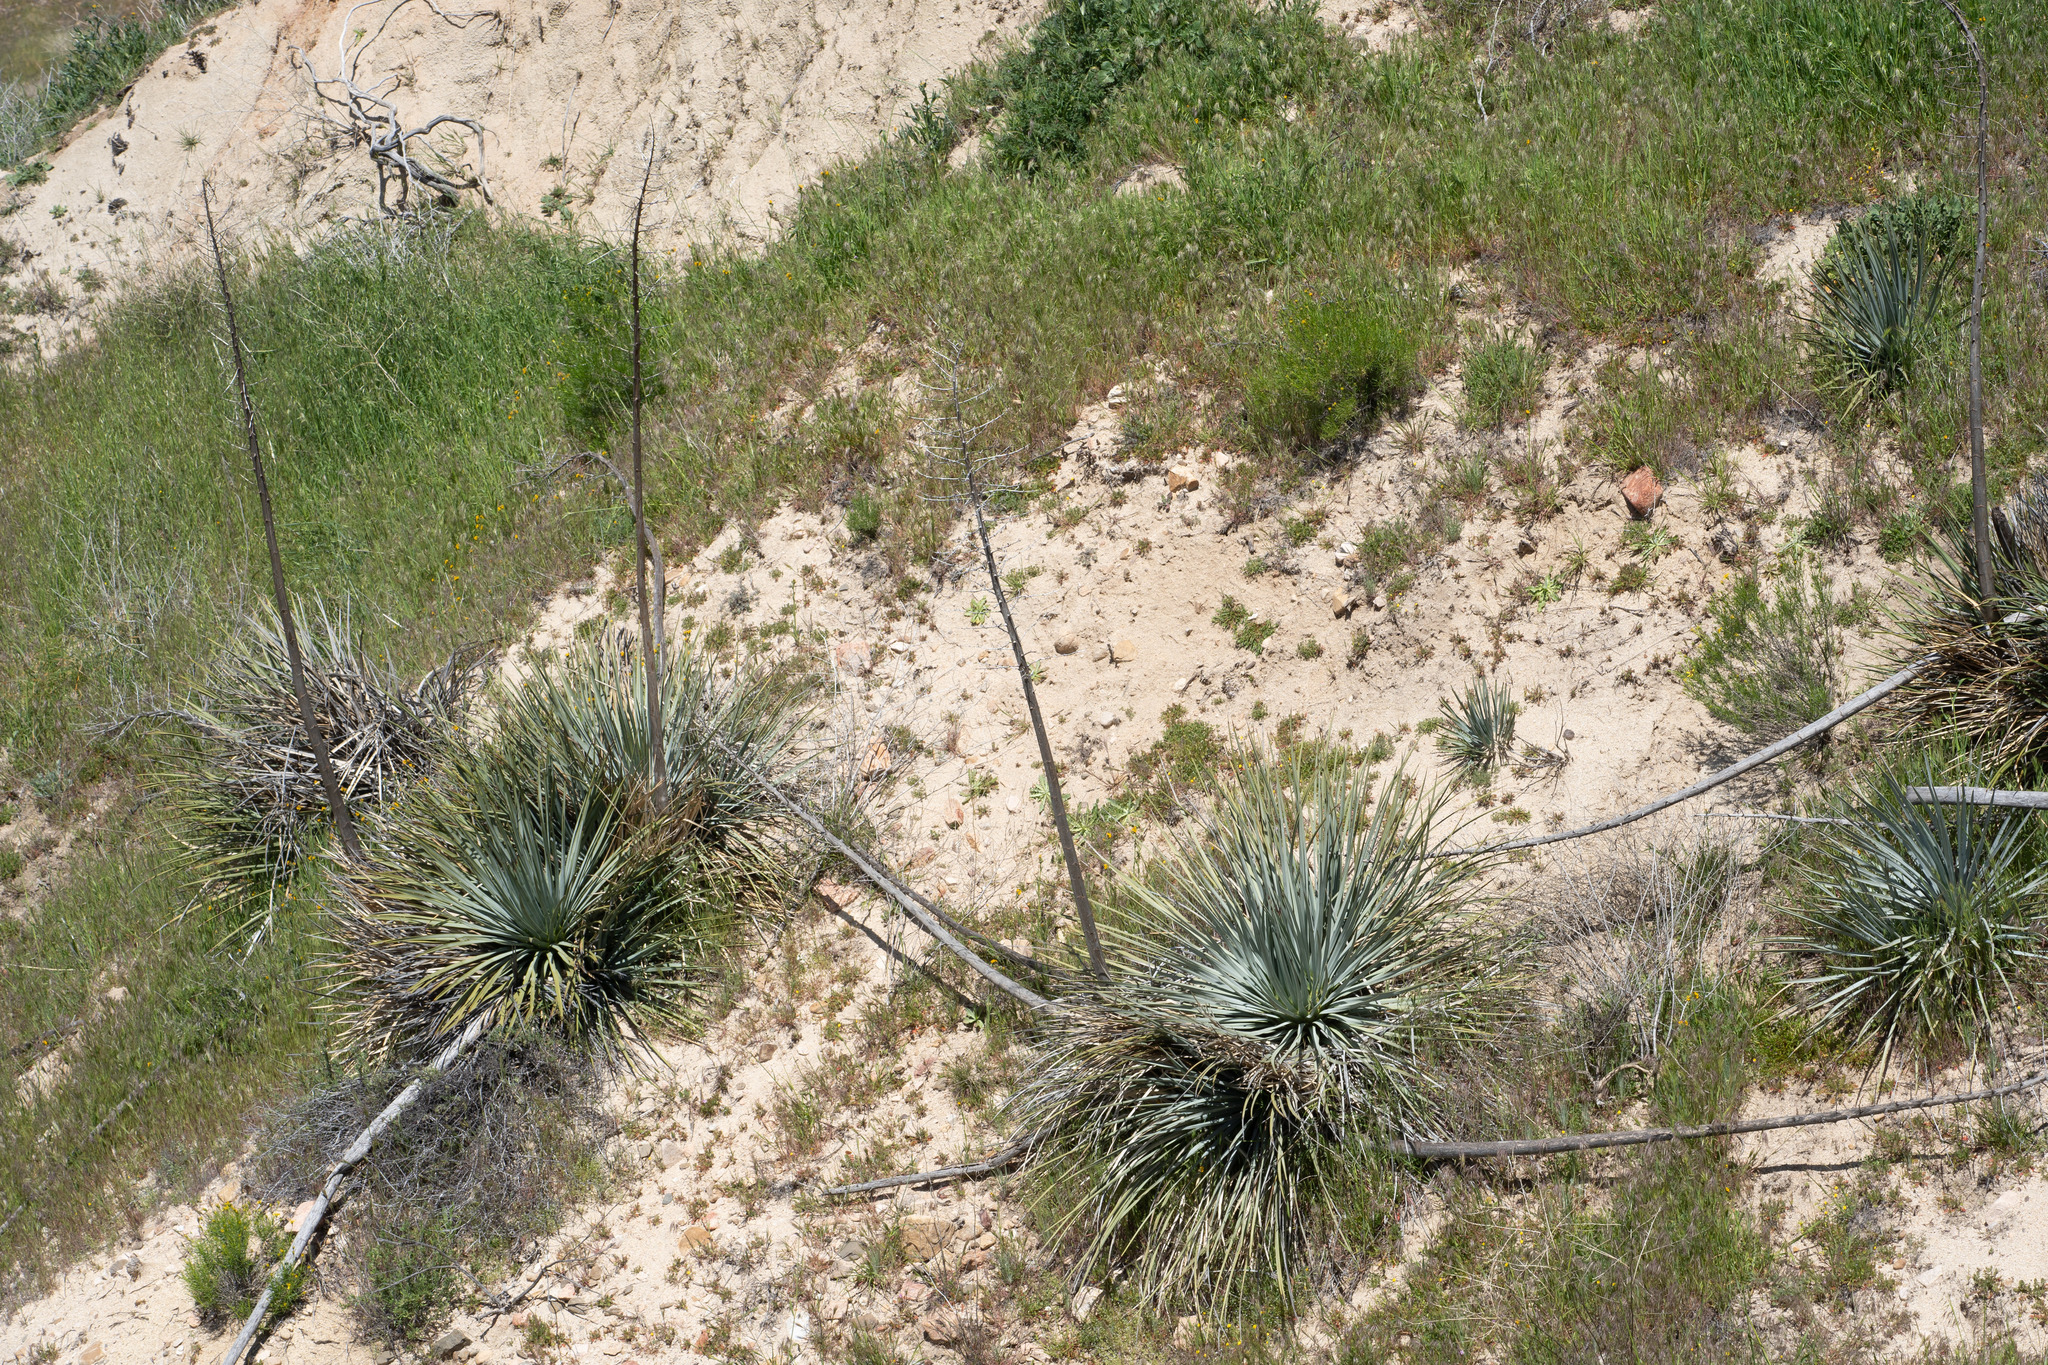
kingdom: Plantae
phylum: Tracheophyta
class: Liliopsida
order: Asparagales
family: Asparagaceae
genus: Hesperoyucca
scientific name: Hesperoyucca whipplei
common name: Our lord's-candle
